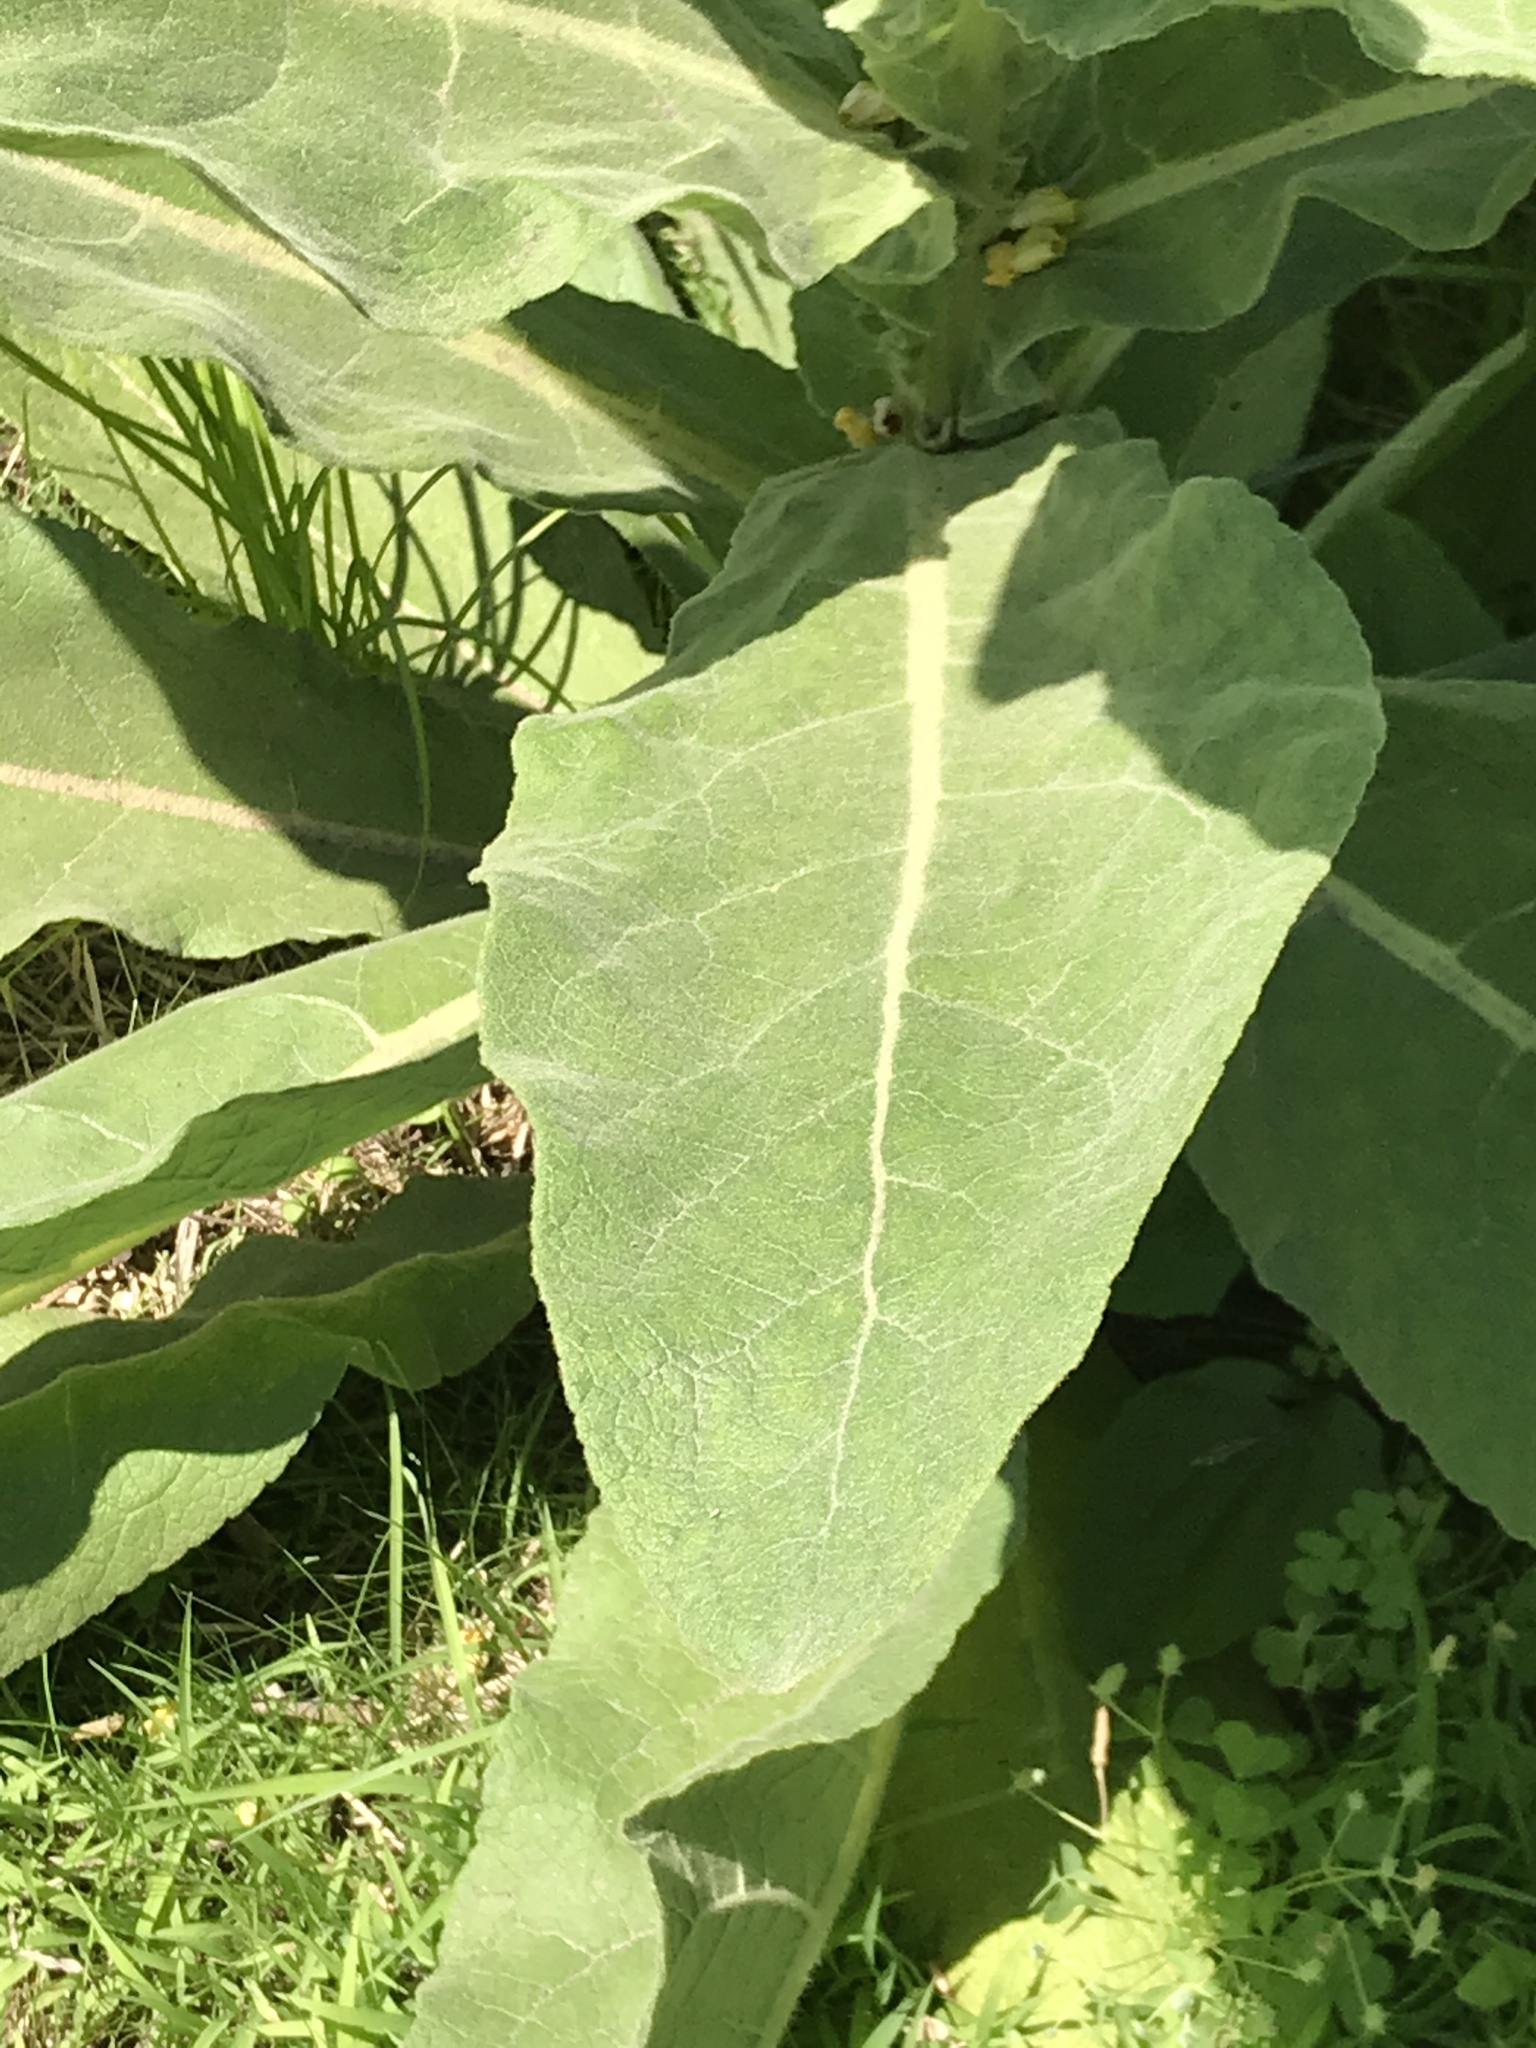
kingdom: Plantae
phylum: Tracheophyta
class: Magnoliopsida
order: Lamiales
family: Scrophulariaceae
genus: Verbascum
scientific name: Verbascum thapsus
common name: Common mullein
